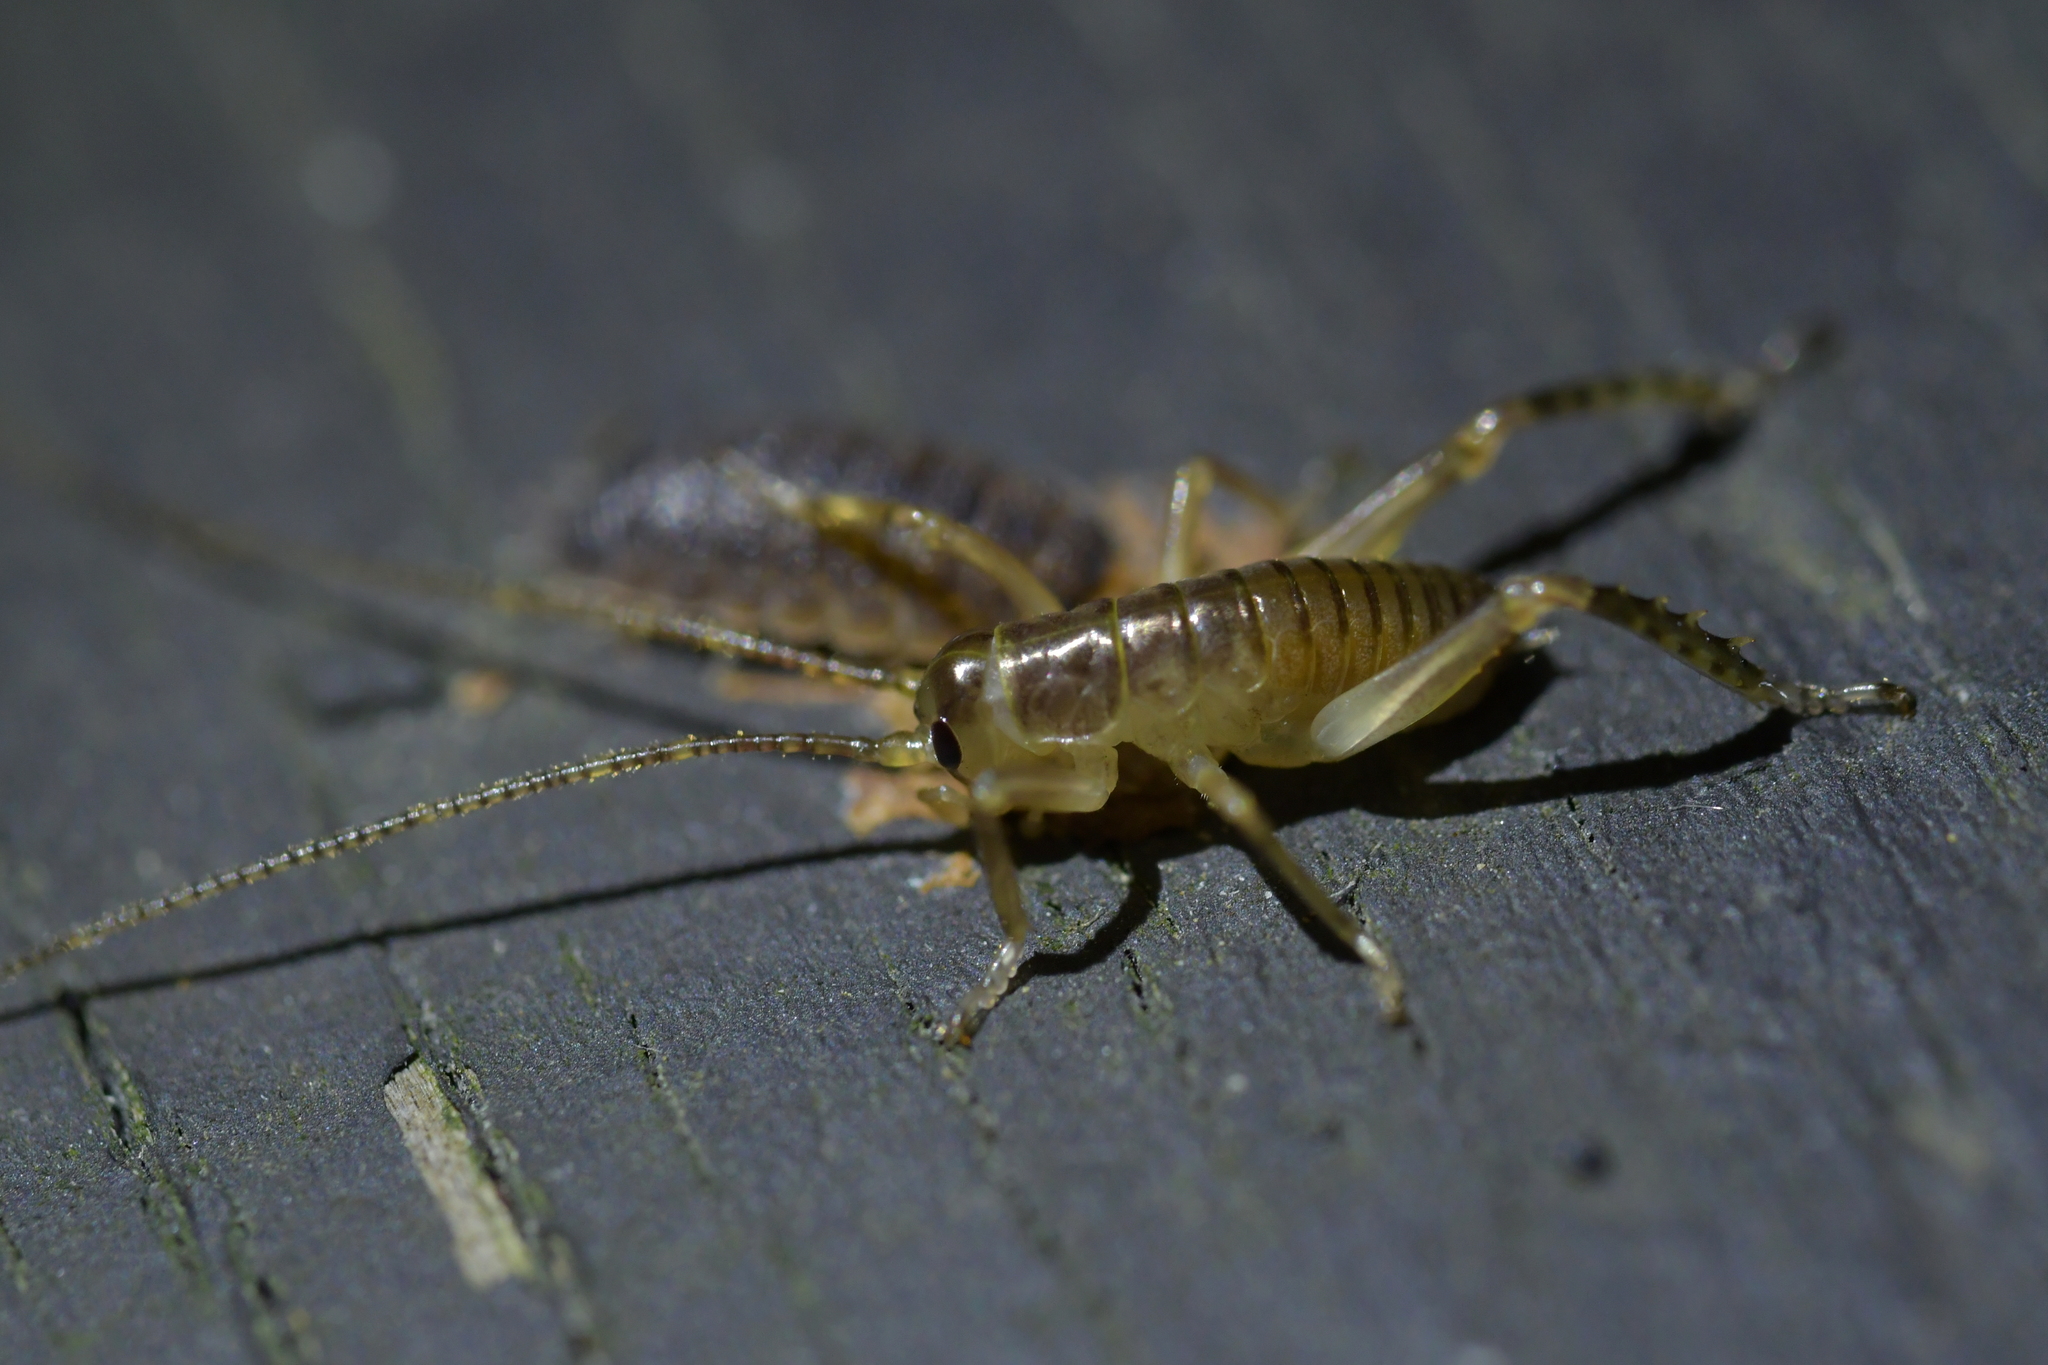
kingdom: Animalia
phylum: Arthropoda
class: Insecta
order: Orthoptera
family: Anostostomatidae
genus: Hemideina
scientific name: Hemideina crassidens
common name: Wellington tree weta
